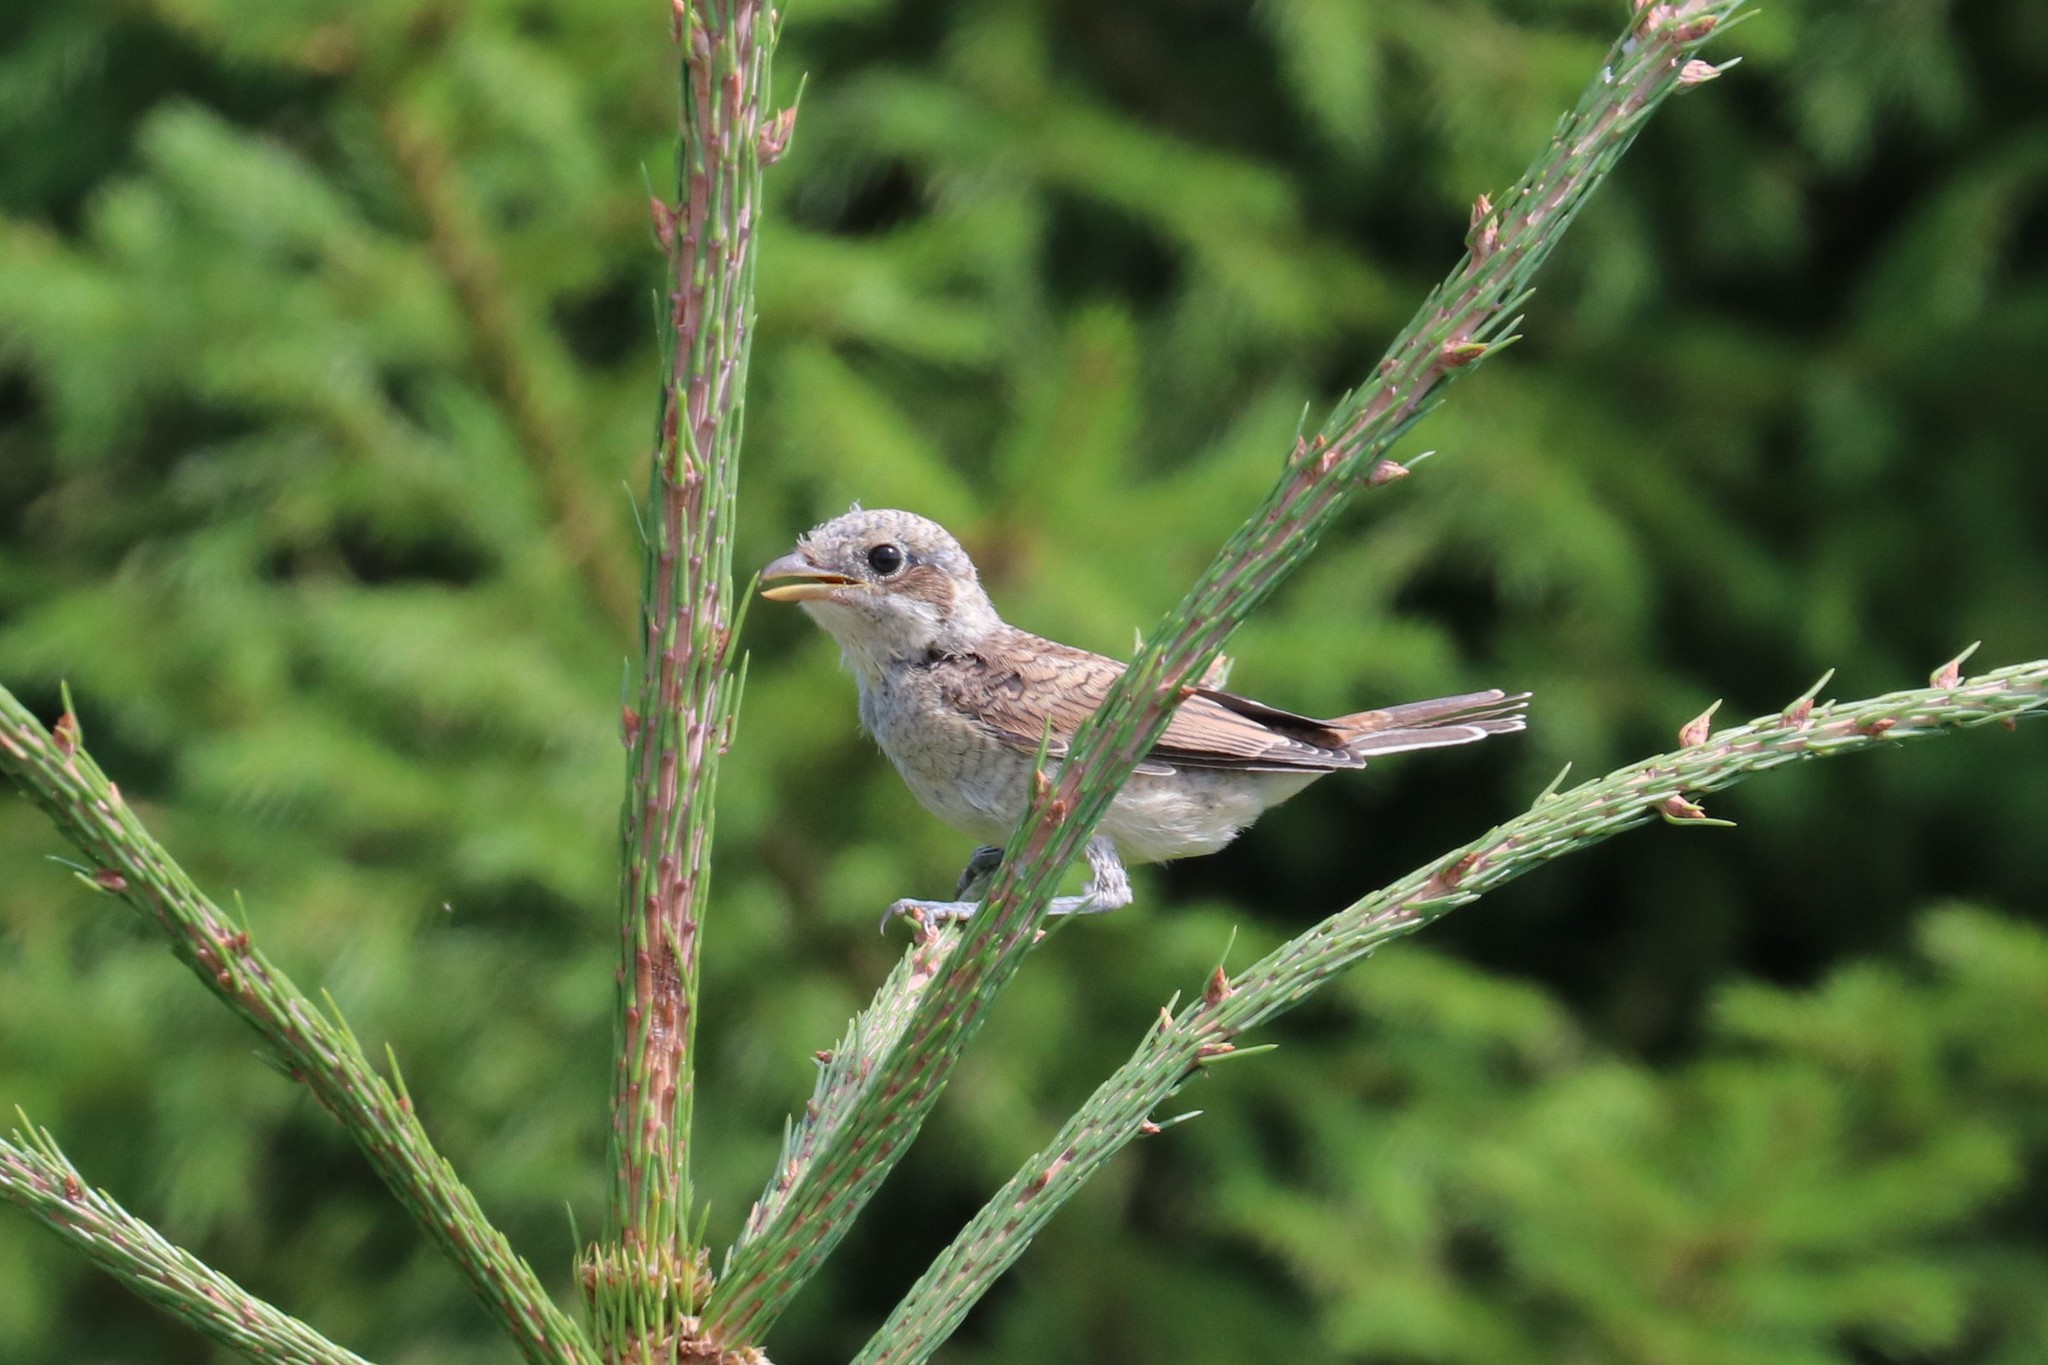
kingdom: Animalia
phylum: Chordata
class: Aves
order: Passeriformes
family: Laniidae
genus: Lanius
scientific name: Lanius collurio
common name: Red-backed shrike
